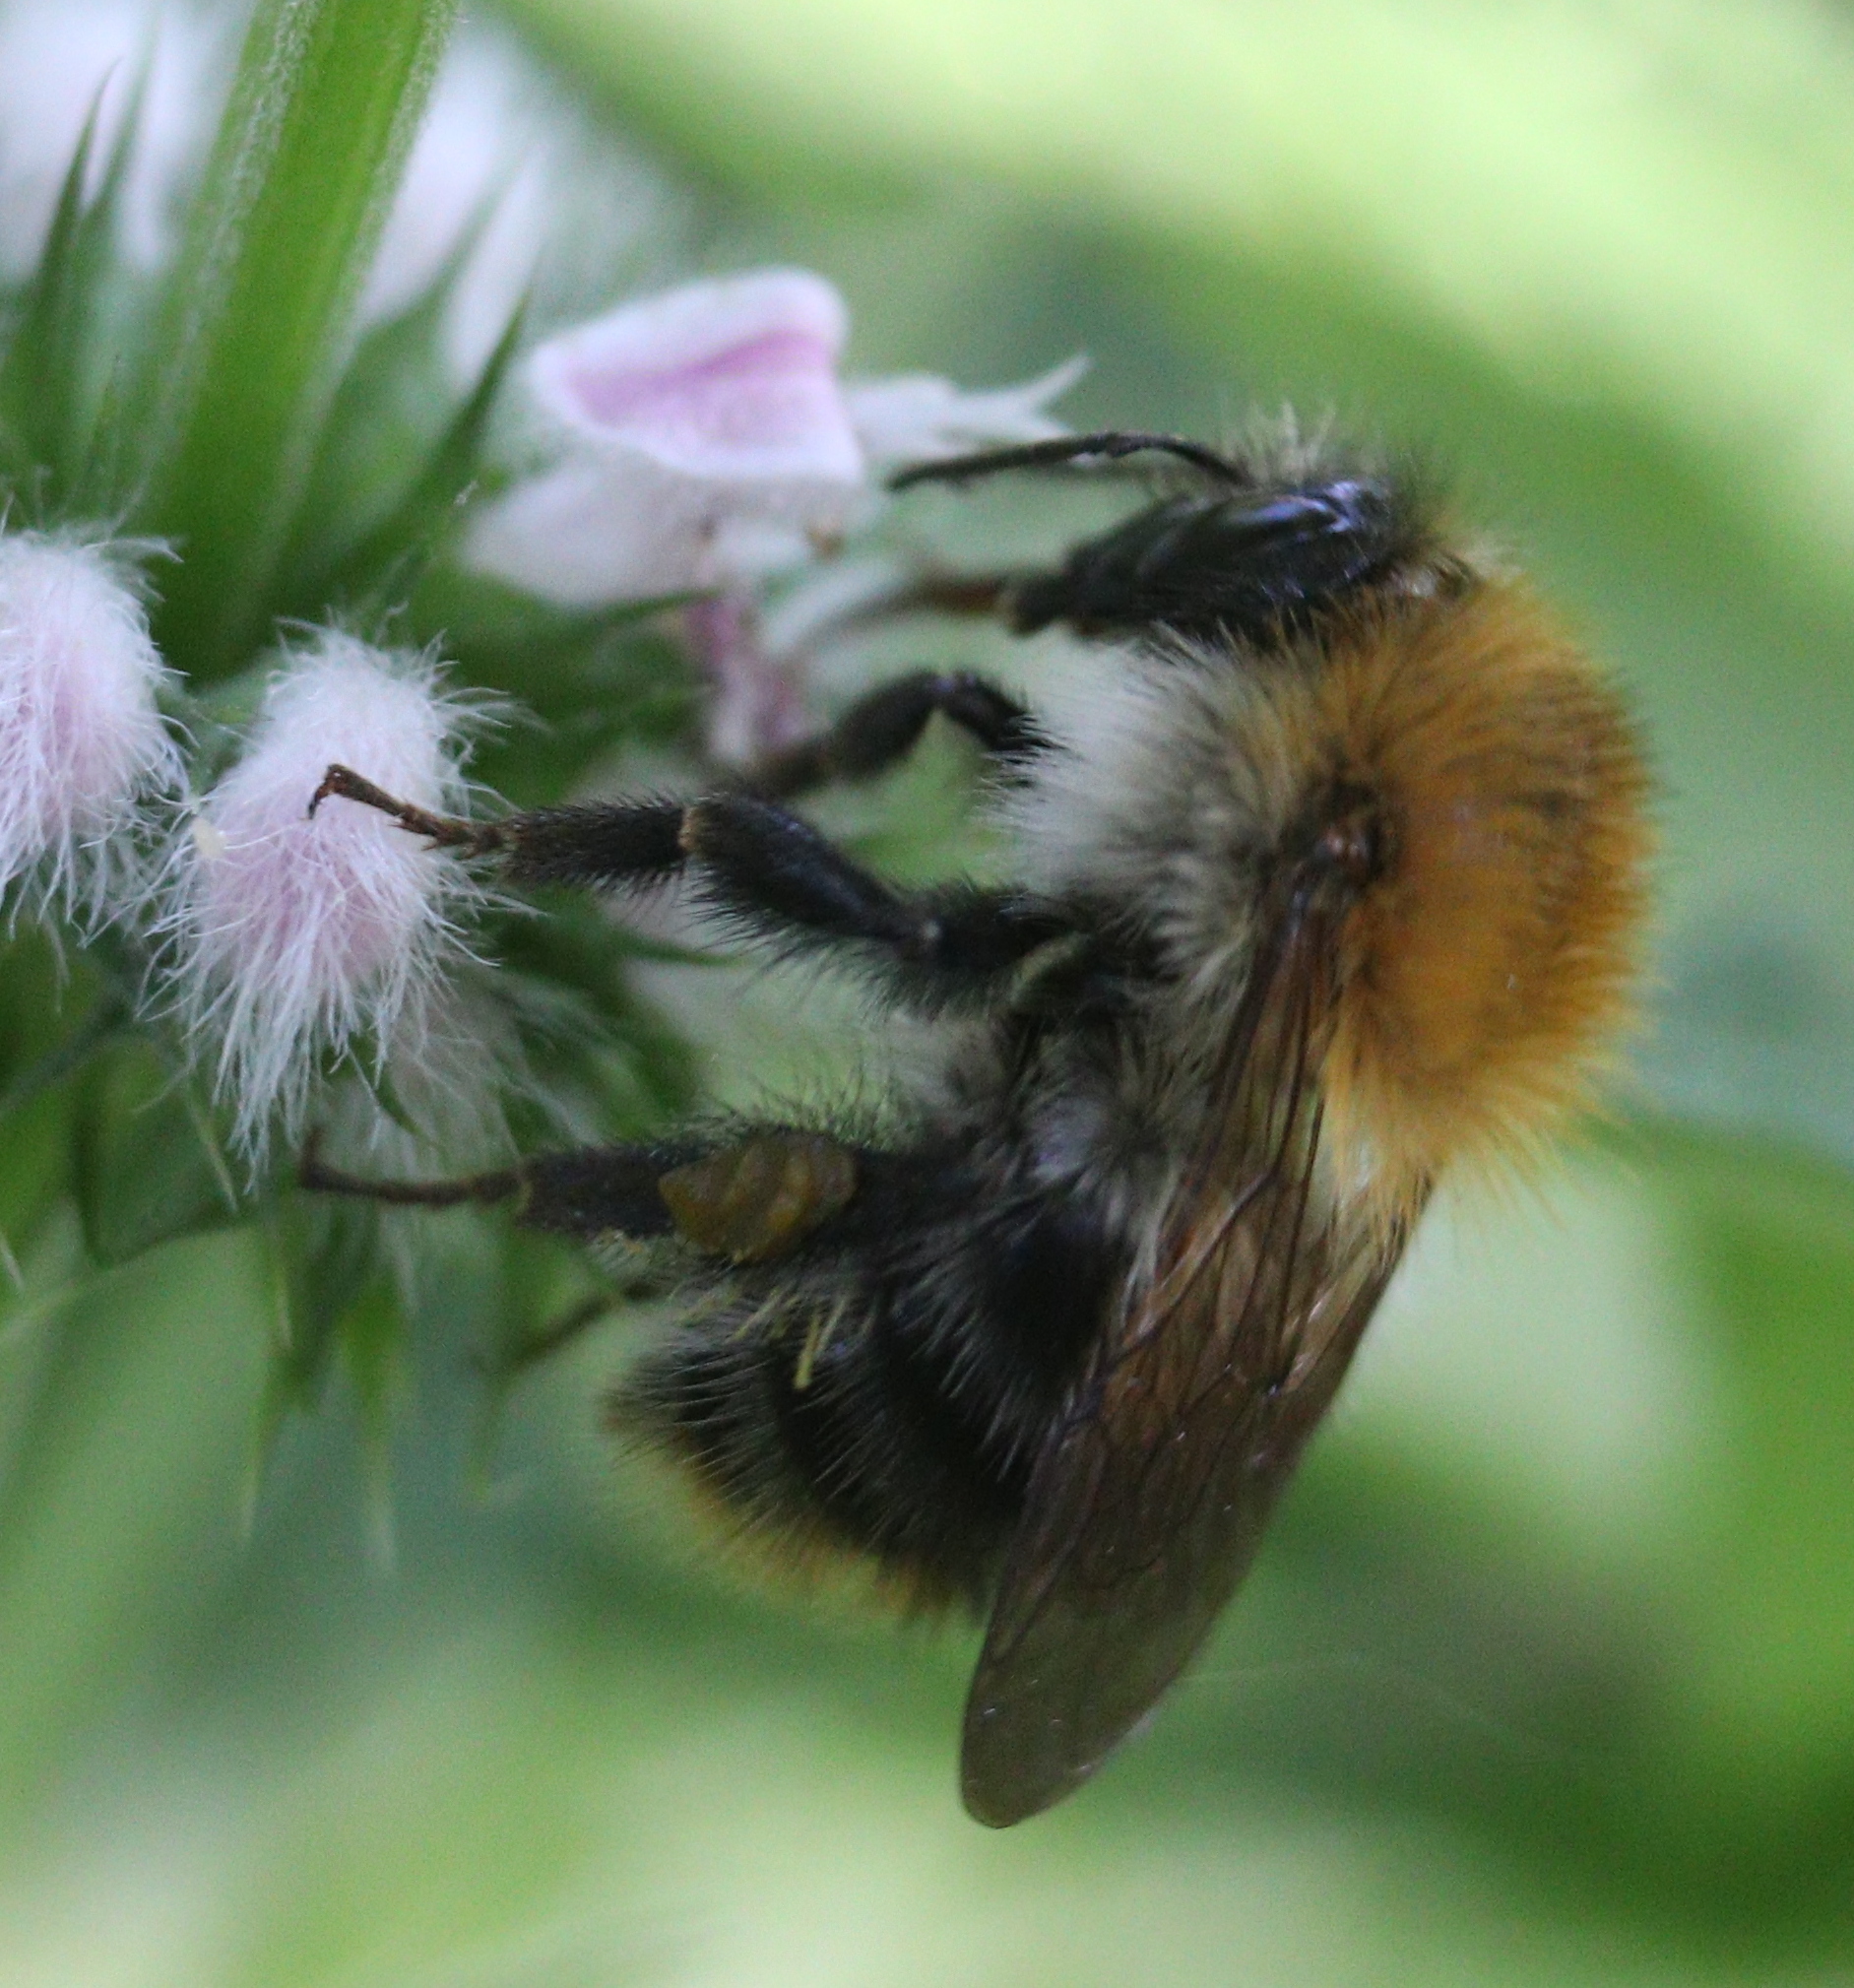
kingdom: Animalia
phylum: Arthropoda
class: Insecta
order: Hymenoptera
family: Apidae
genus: Bombus
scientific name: Bombus pascuorum
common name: Common carder bee
